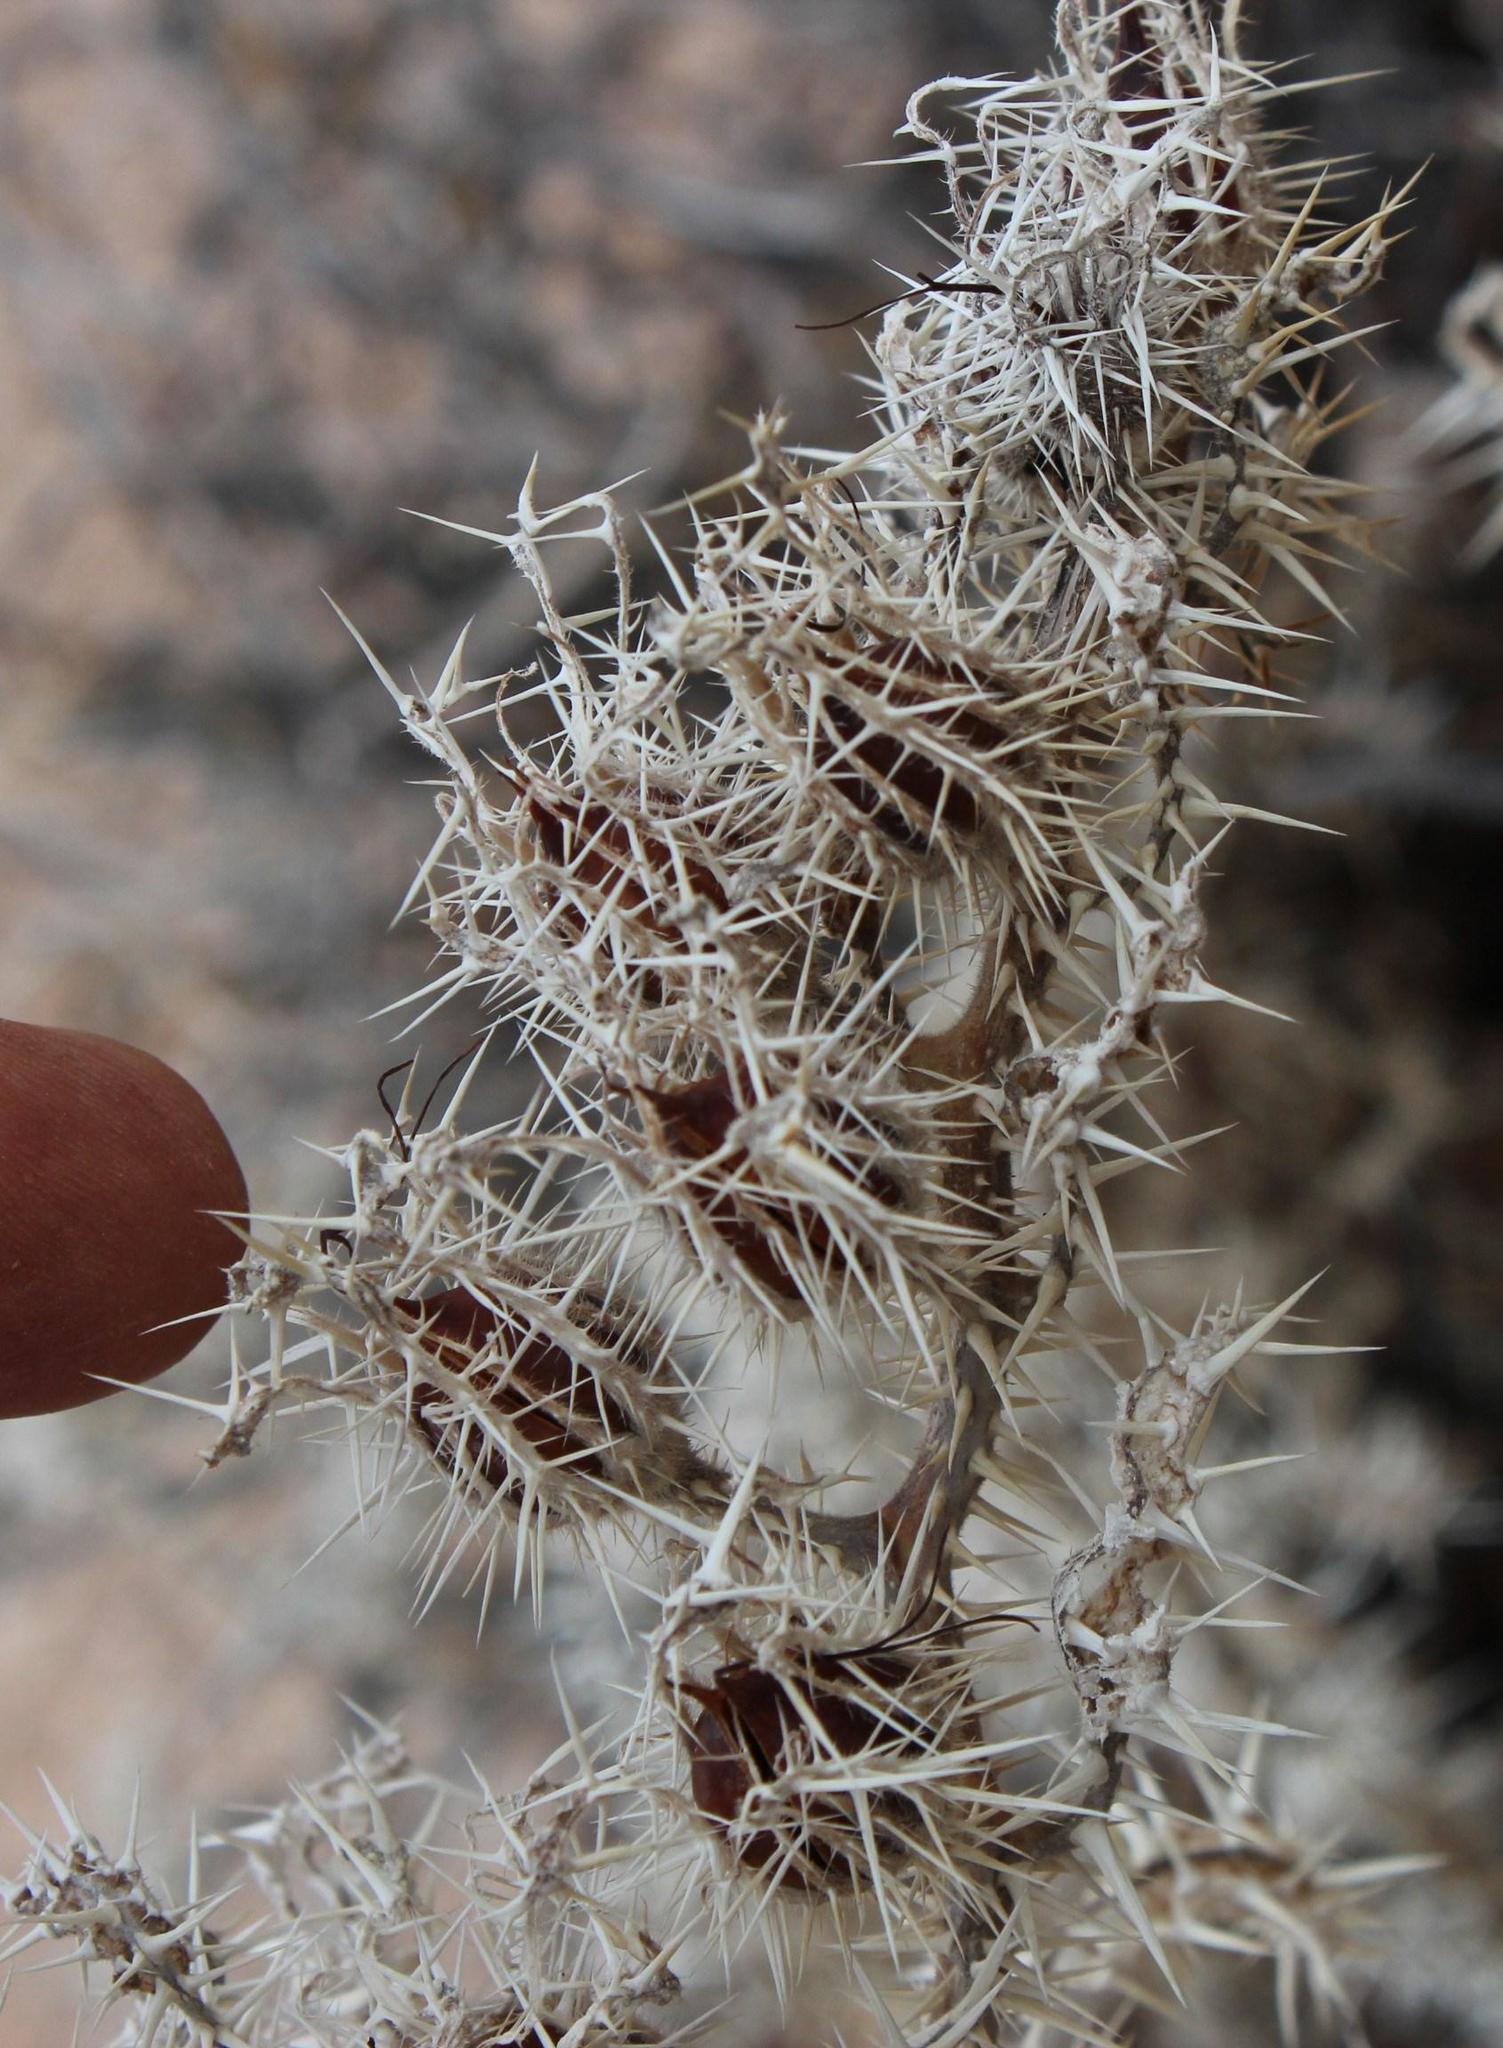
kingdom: Plantae
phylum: Tracheophyta
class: Magnoliopsida
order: Boraginales
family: Boraginaceae
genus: Codon
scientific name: Codon royenii
